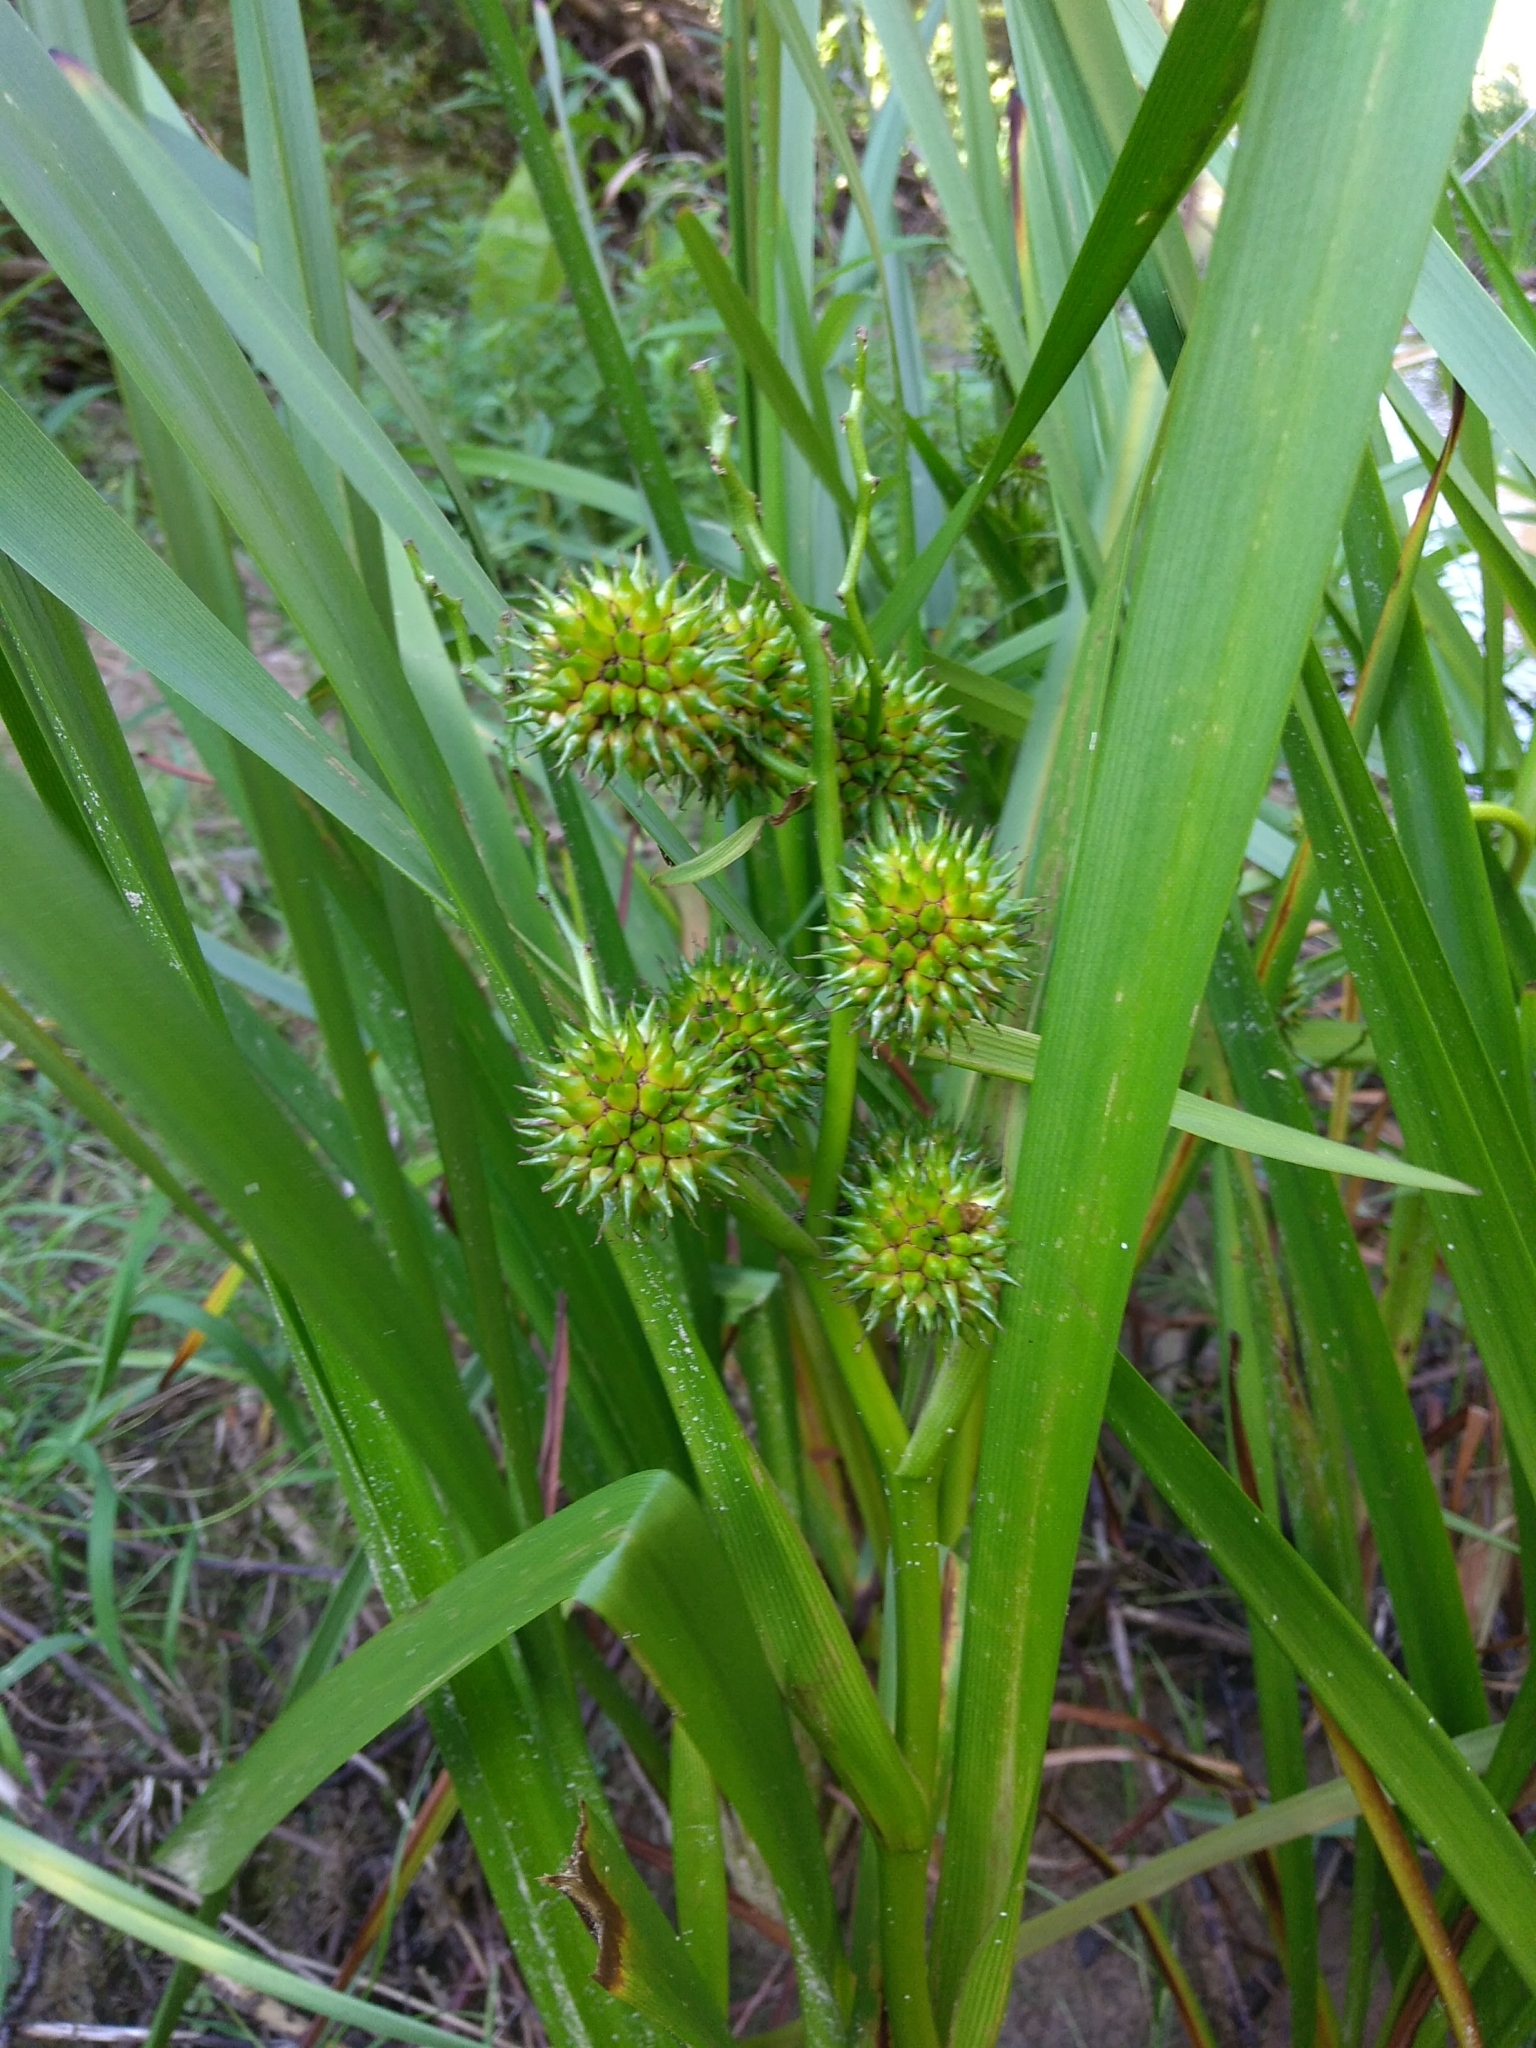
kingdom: Plantae
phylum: Tracheophyta
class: Liliopsida
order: Poales
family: Typhaceae
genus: Sparganium
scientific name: Sparganium erectum
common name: Branched bur-reed
